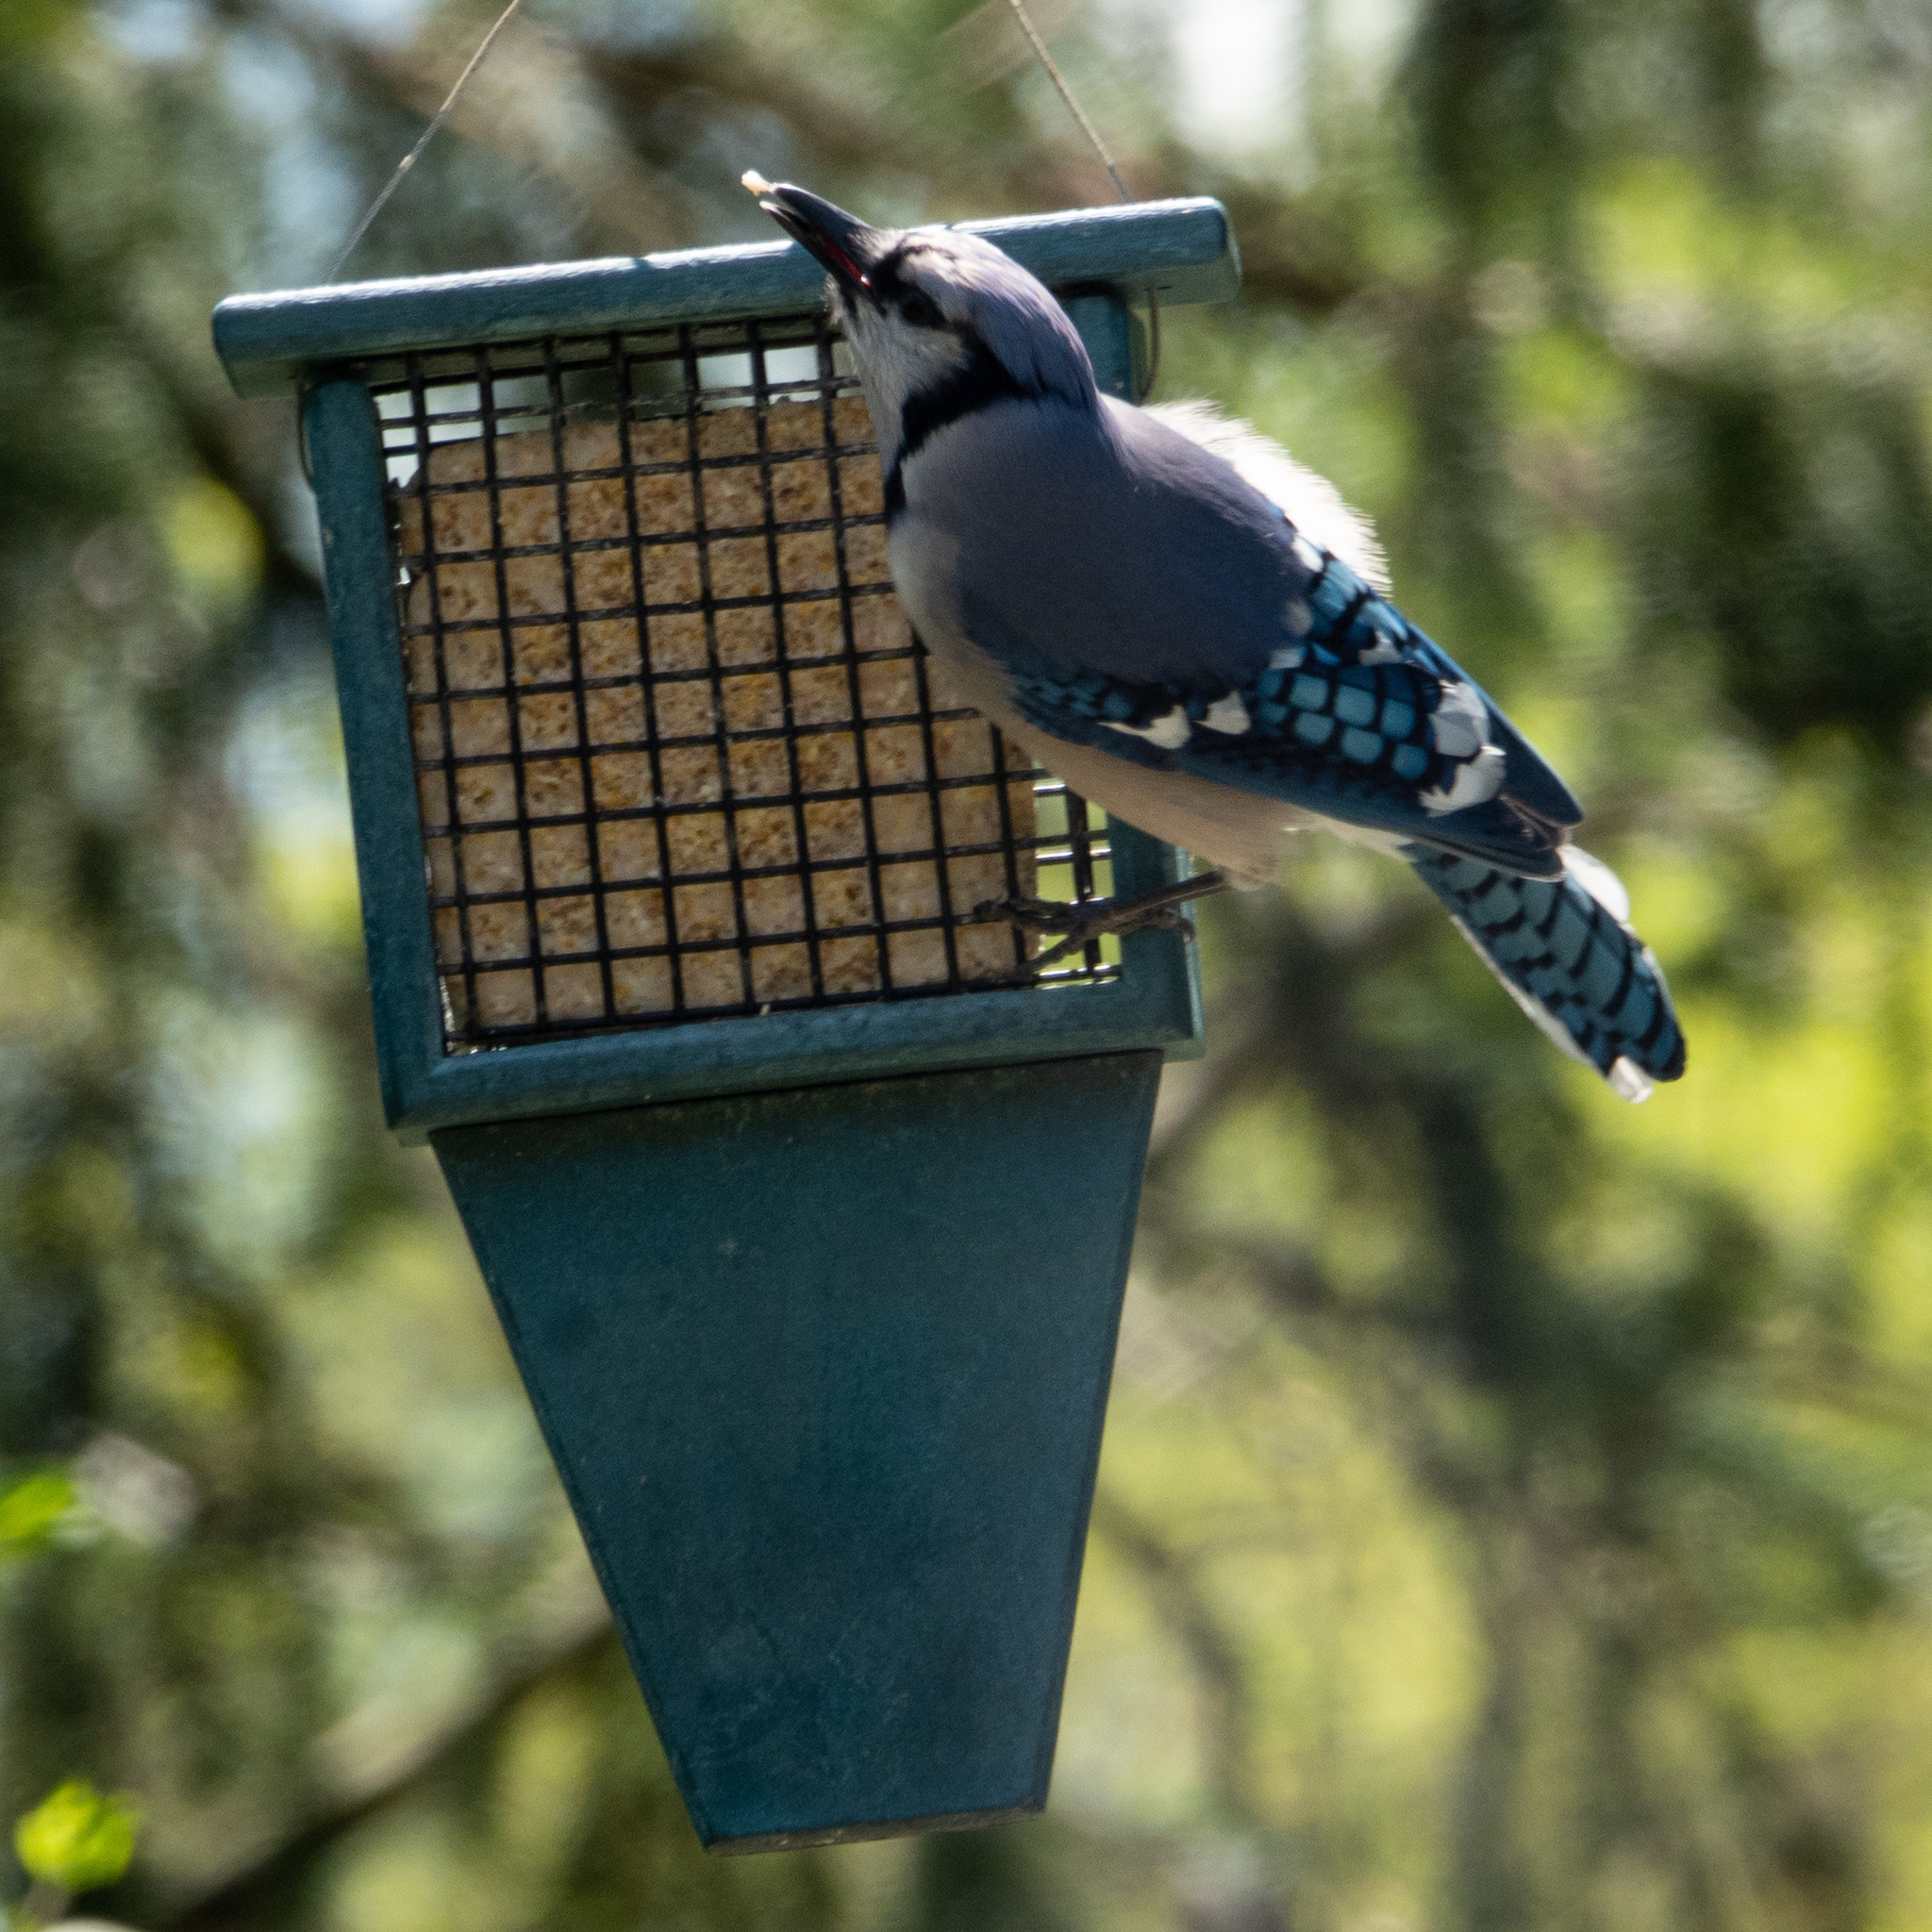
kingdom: Animalia
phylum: Chordata
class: Aves
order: Passeriformes
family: Corvidae
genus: Cyanocitta
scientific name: Cyanocitta cristata
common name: Blue jay
